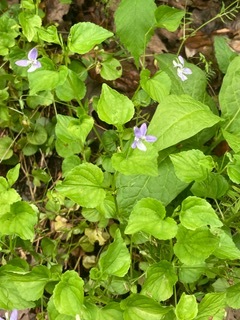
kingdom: Plantae
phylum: Tracheophyta
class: Magnoliopsida
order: Malpighiales
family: Violaceae
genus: Viola
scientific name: Viola labradorica
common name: Labrador violet
